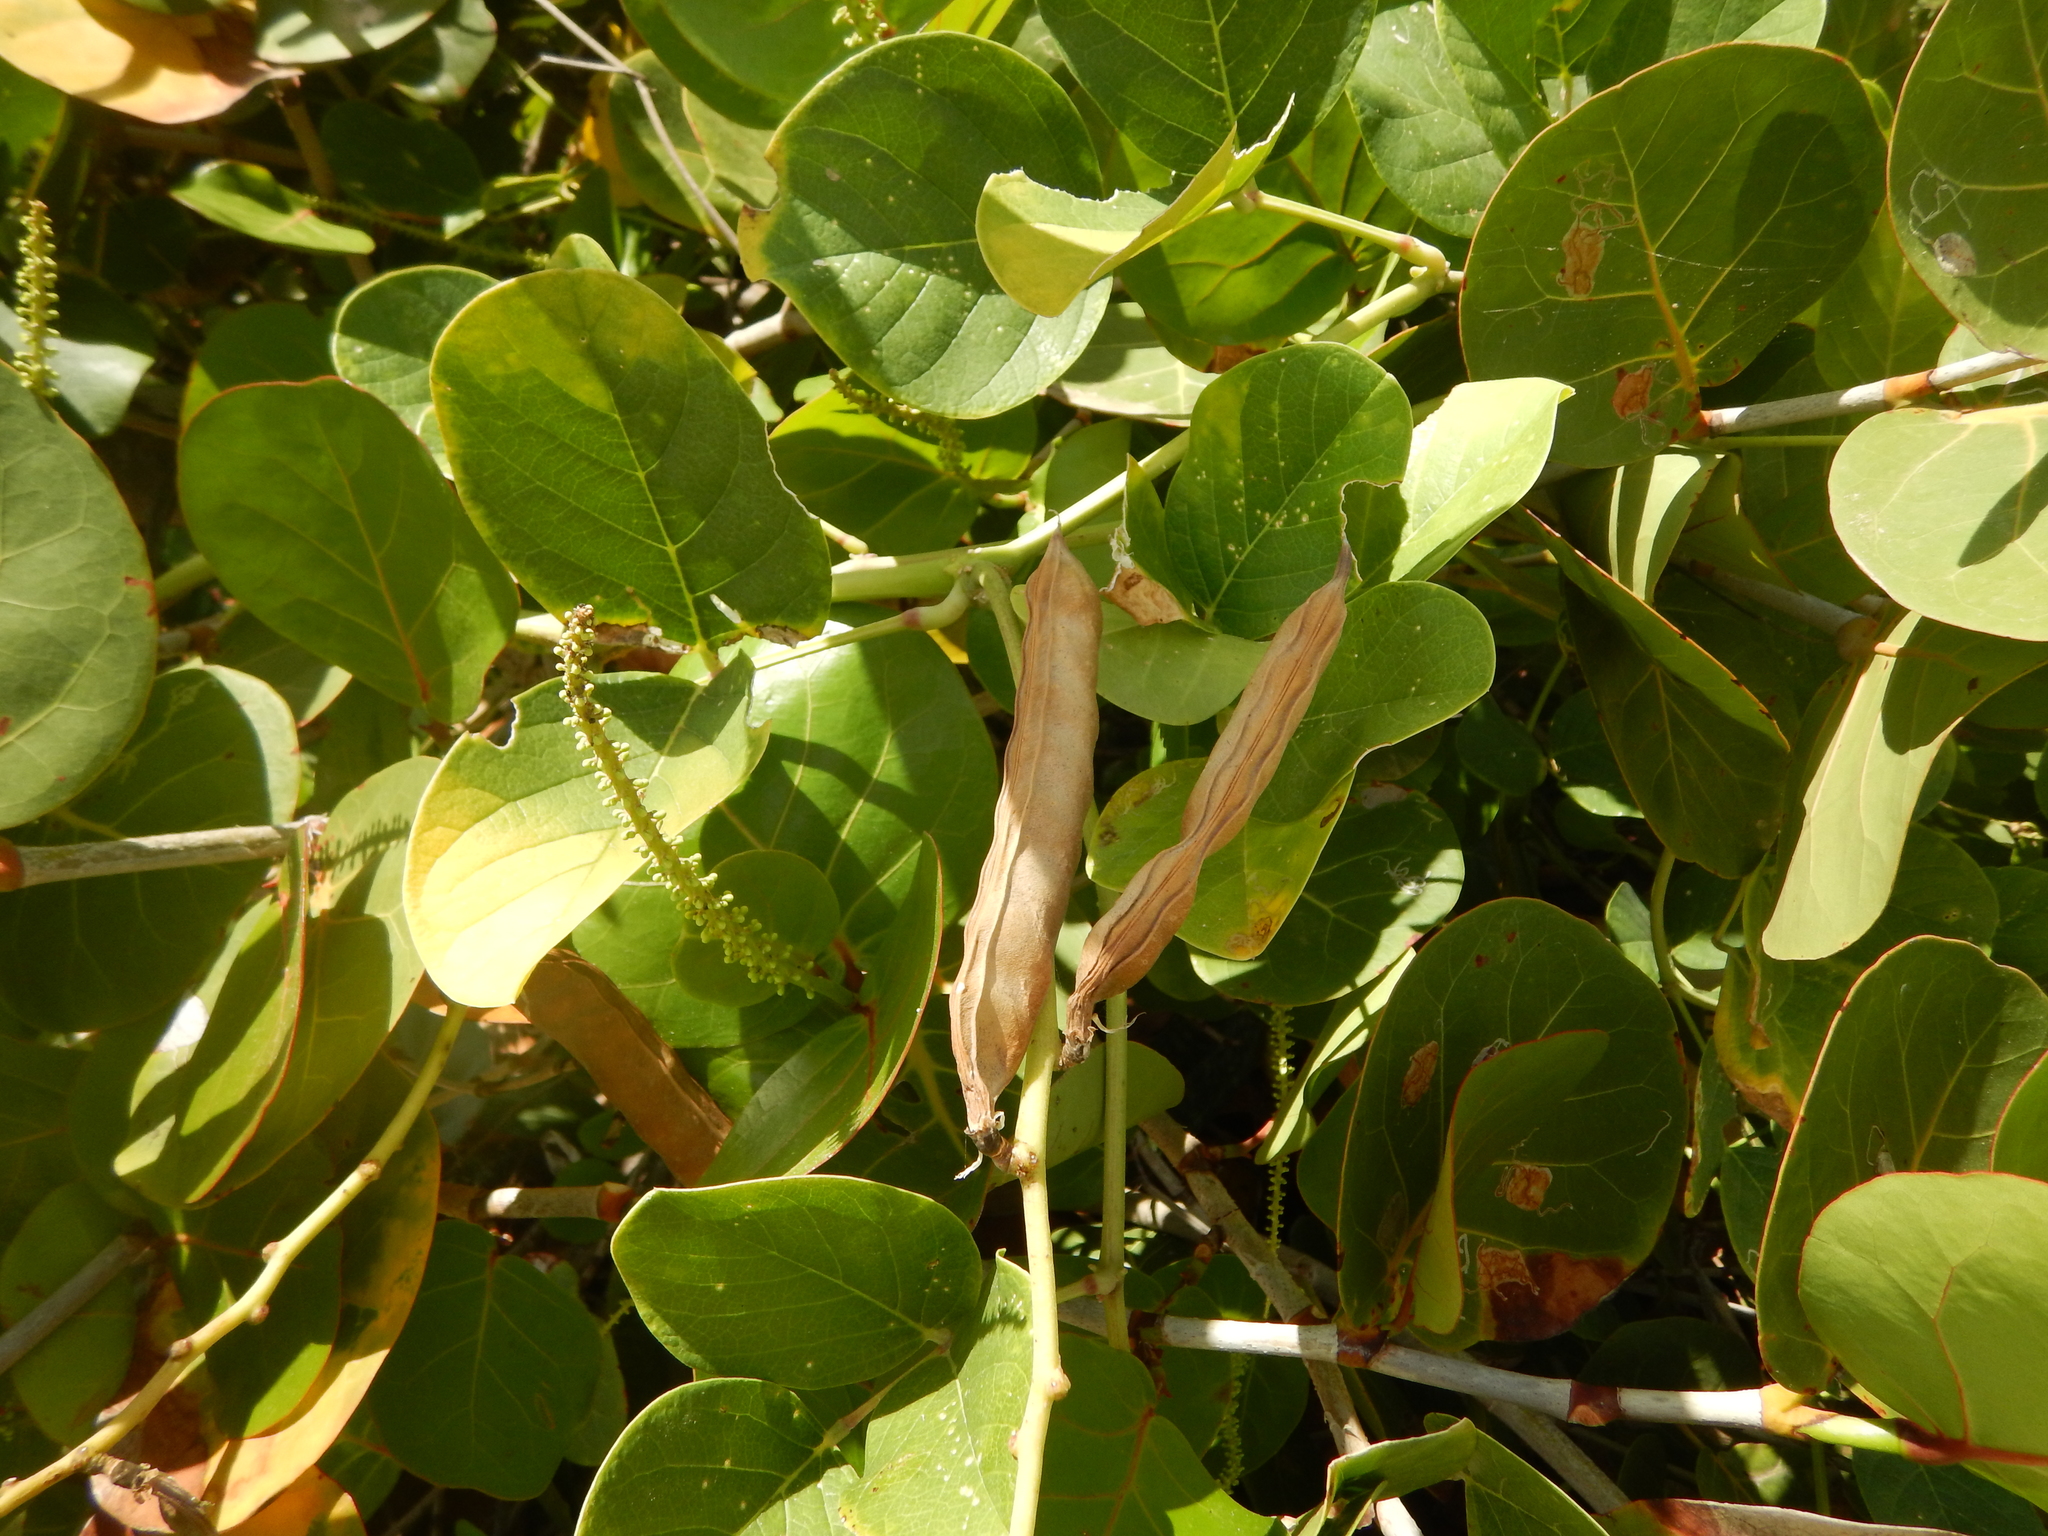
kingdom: Plantae
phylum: Tracheophyta
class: Magnoliopsida
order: Fabales
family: Fabaceae
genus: Canavalia
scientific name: Canavalia rosea
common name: Beach-bean
